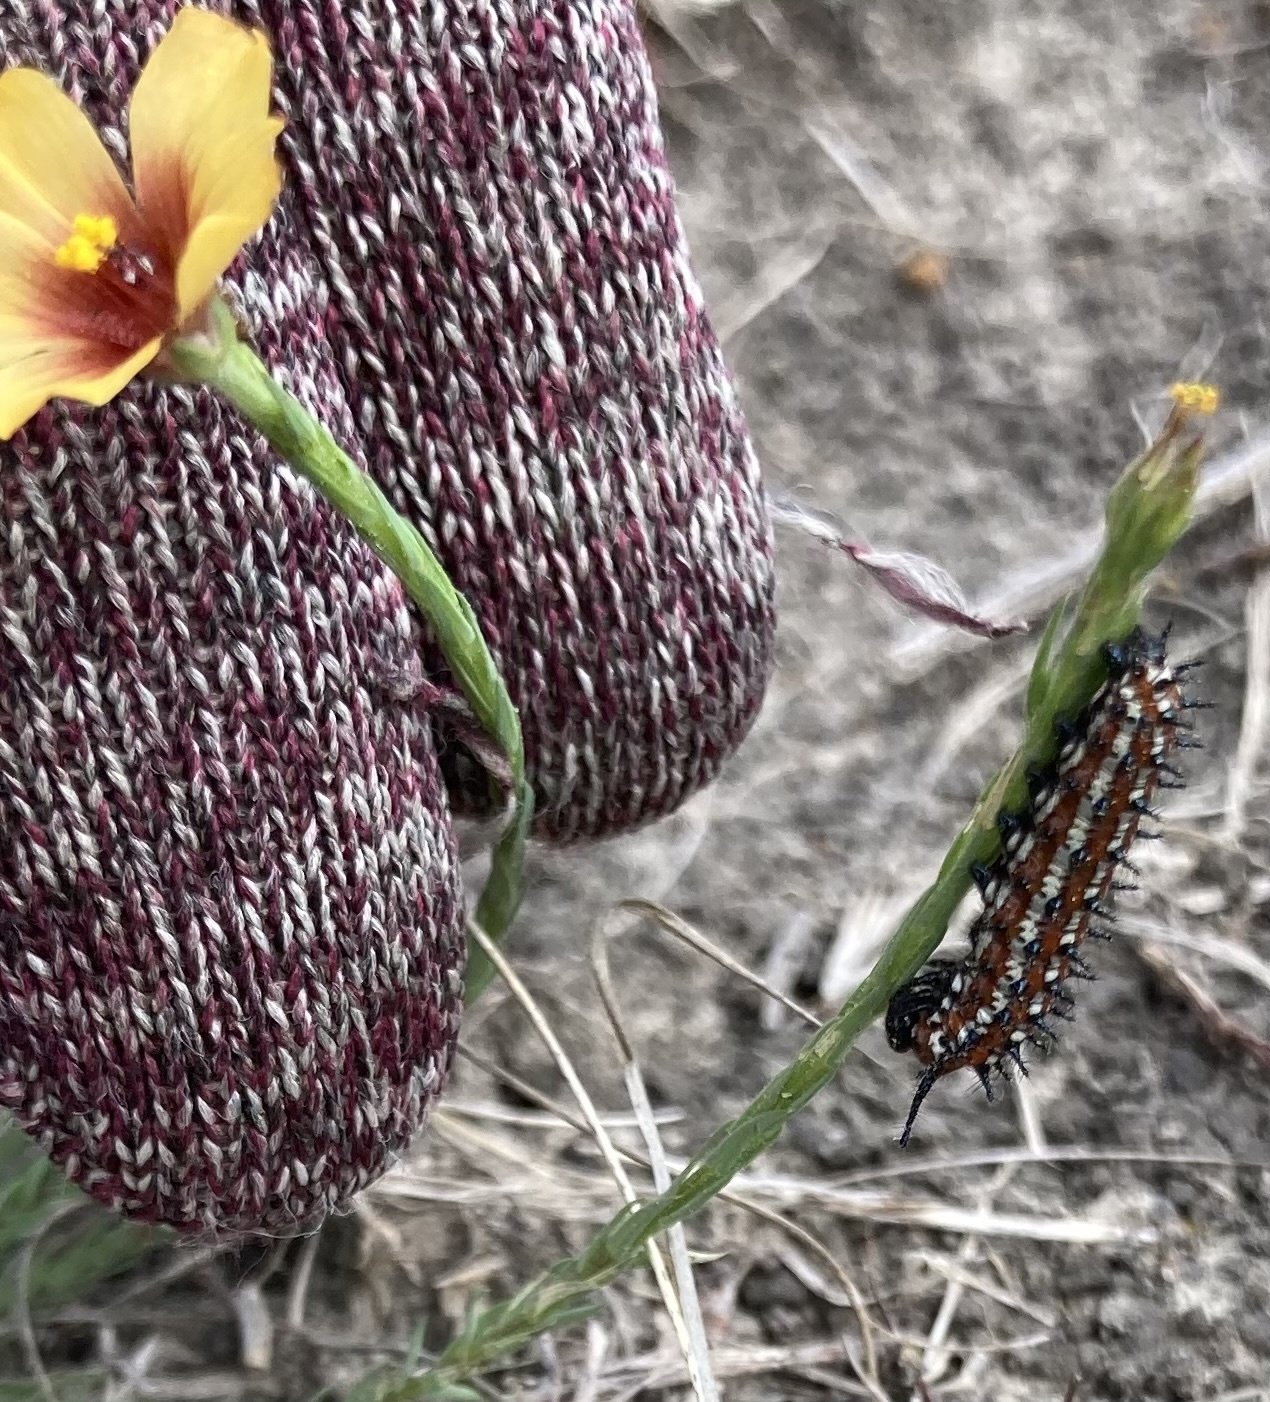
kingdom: Animalia
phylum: Arthropoda
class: Insecta
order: Lepidoptera
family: Nymphalidae
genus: Euptoieta
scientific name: Euptoieta claudia
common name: Variegated fritillary
